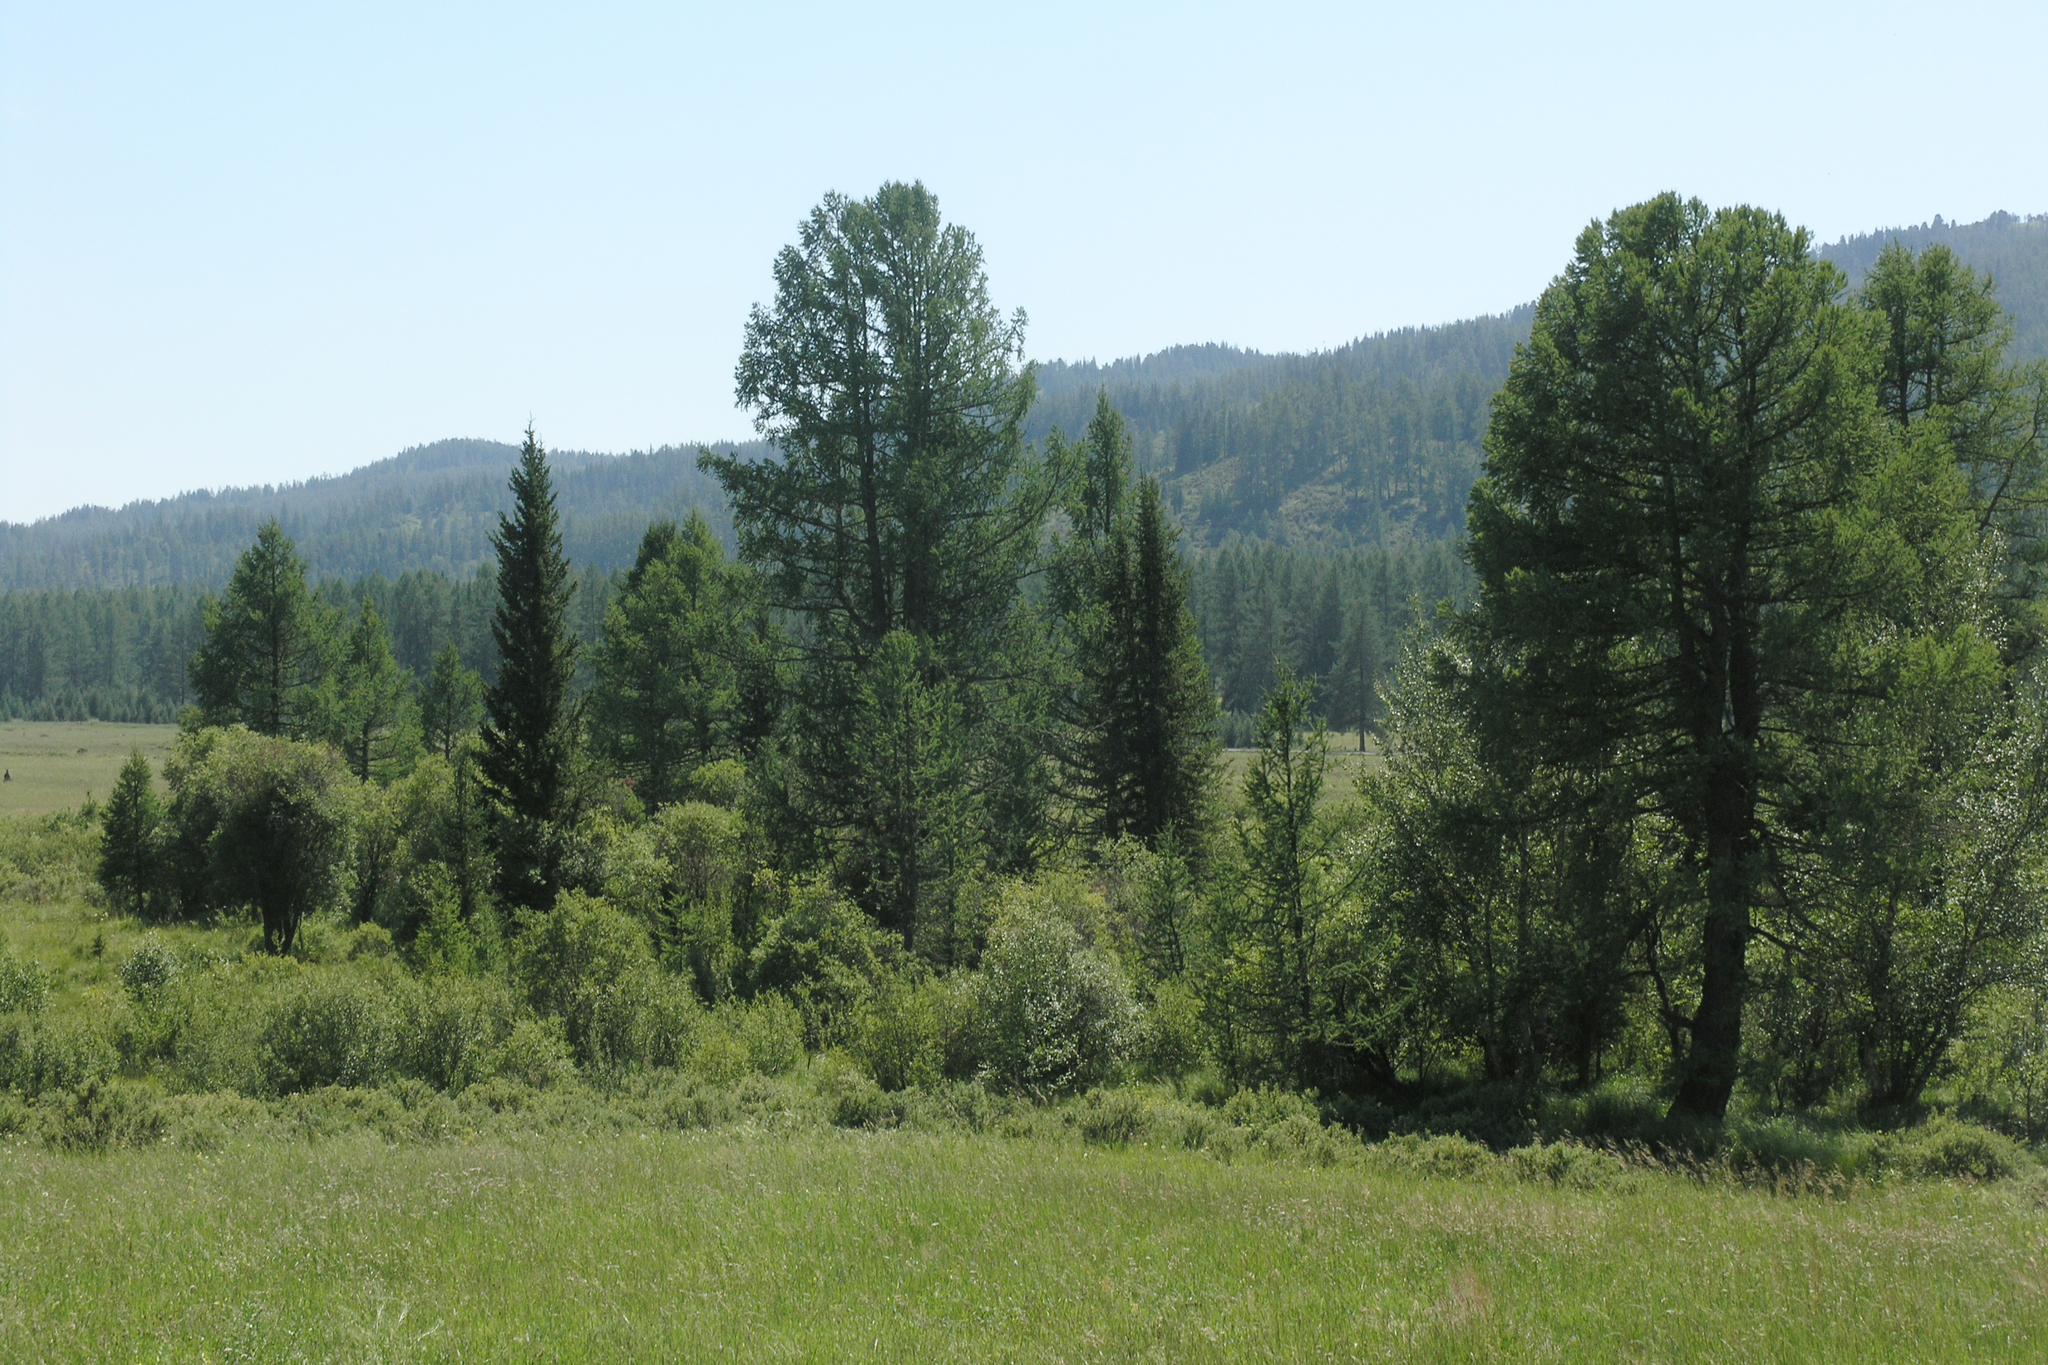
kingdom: Plantae
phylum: Tracheophyta
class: Pinopsida
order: Pinales
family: Pinaceae
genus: Larix
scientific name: Larix sibirica
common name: Siberian larch
